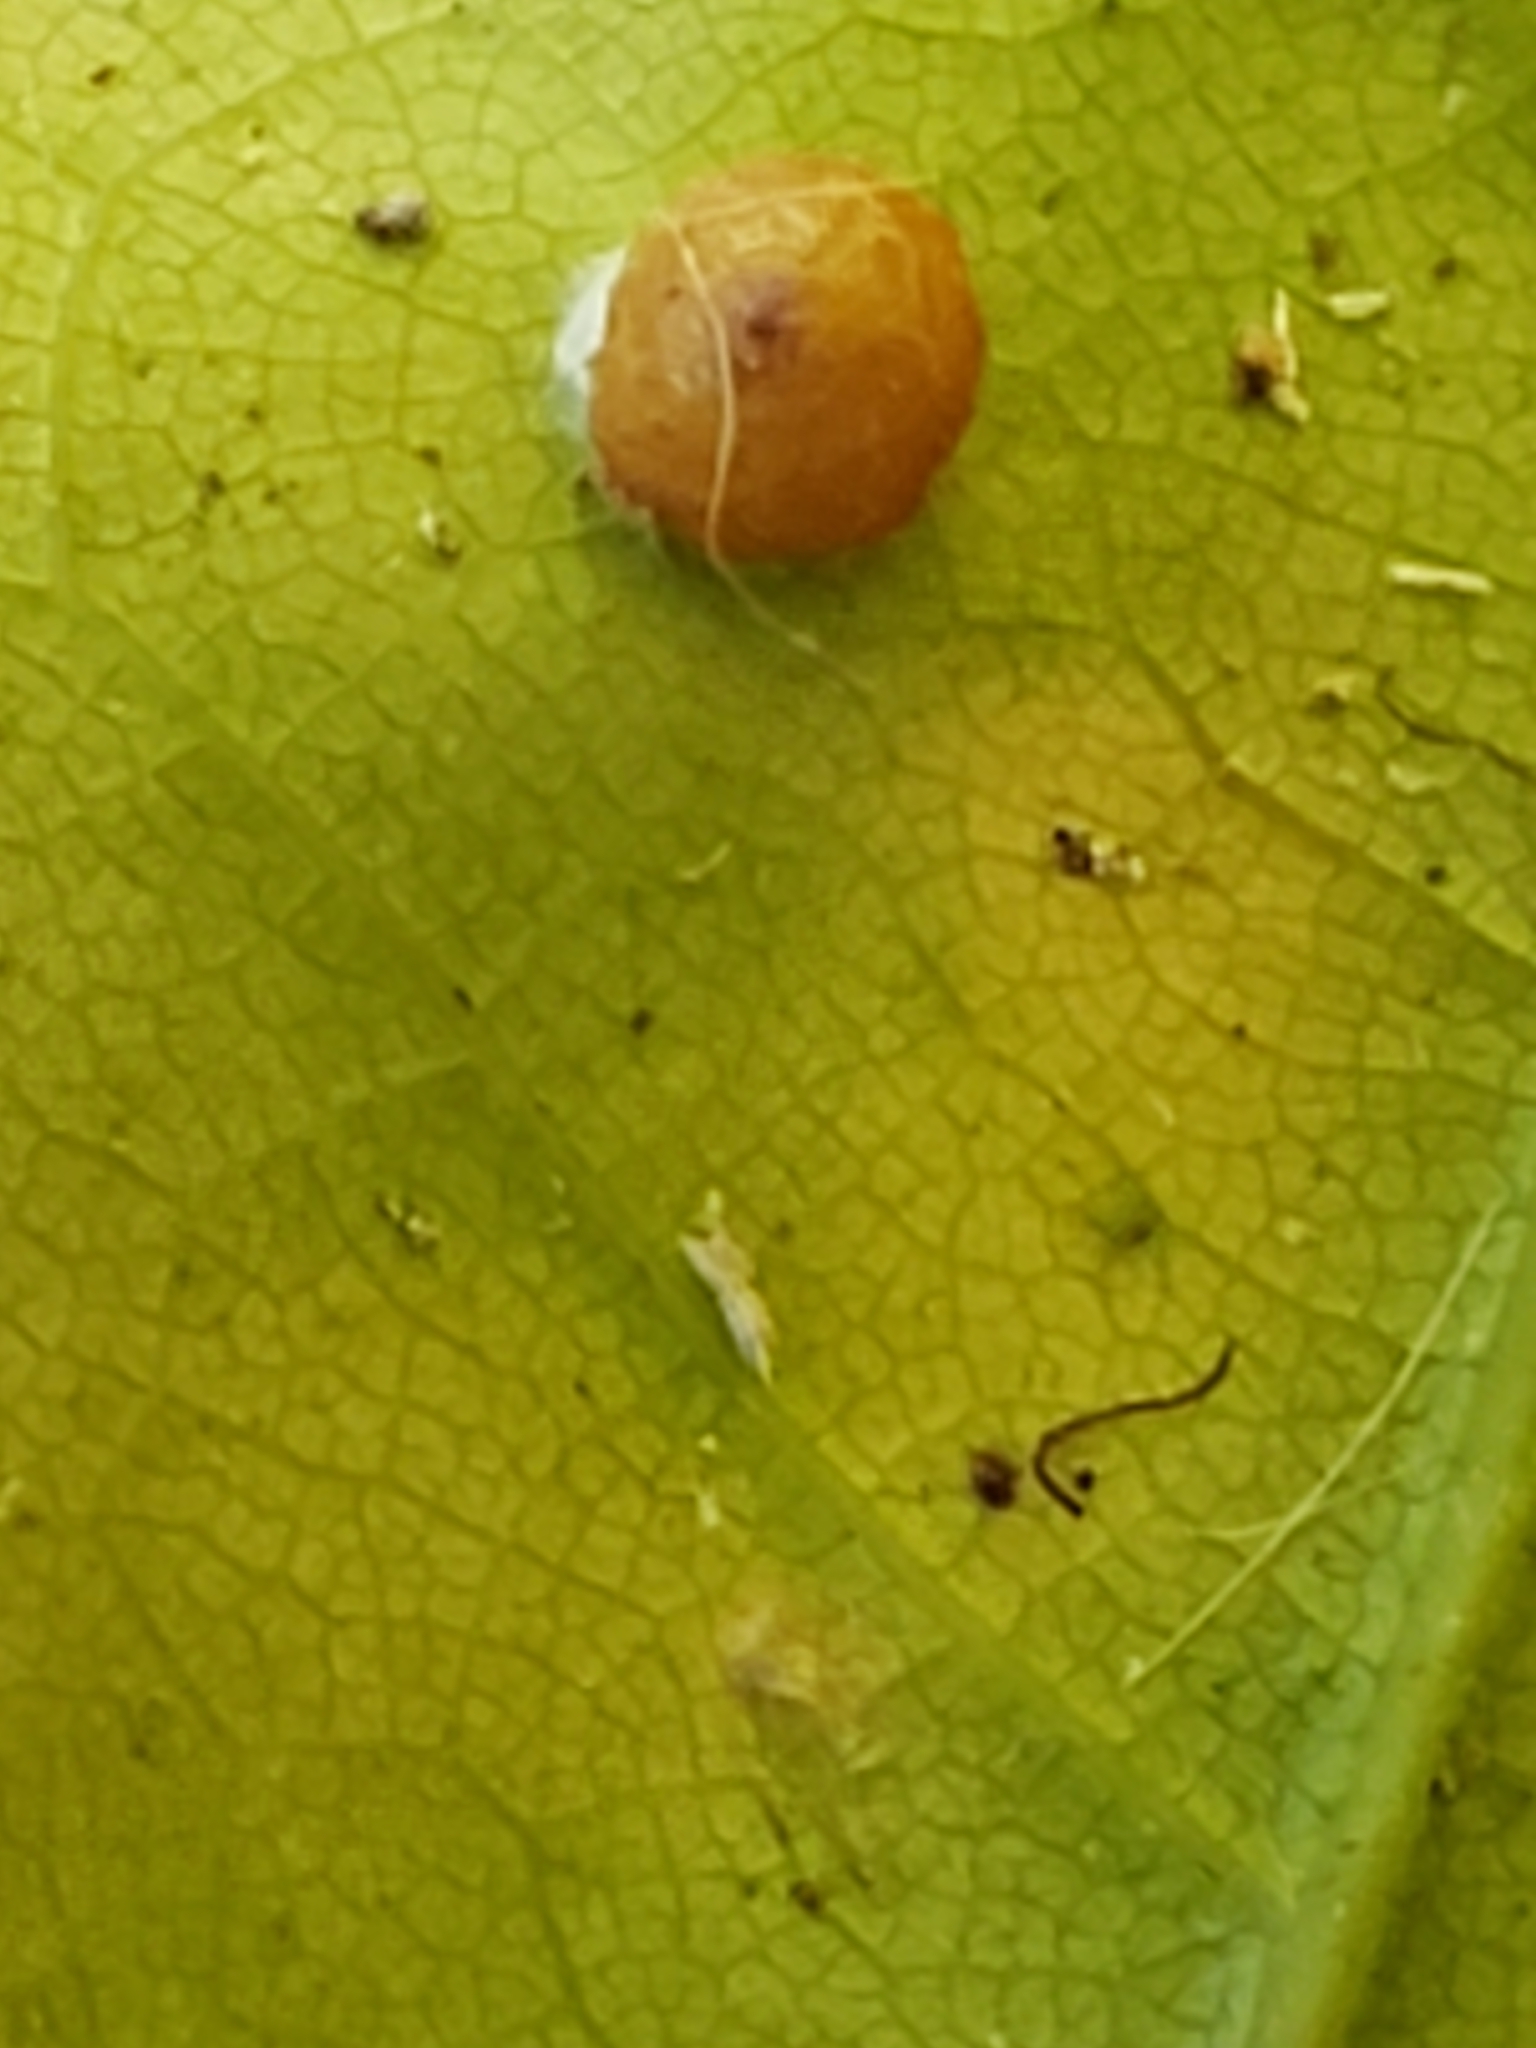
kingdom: Animalia
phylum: Arthropoda
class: Insecta
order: Diptera
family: Cecidomyiidae
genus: Polystepha
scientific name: Polystepha globosa
